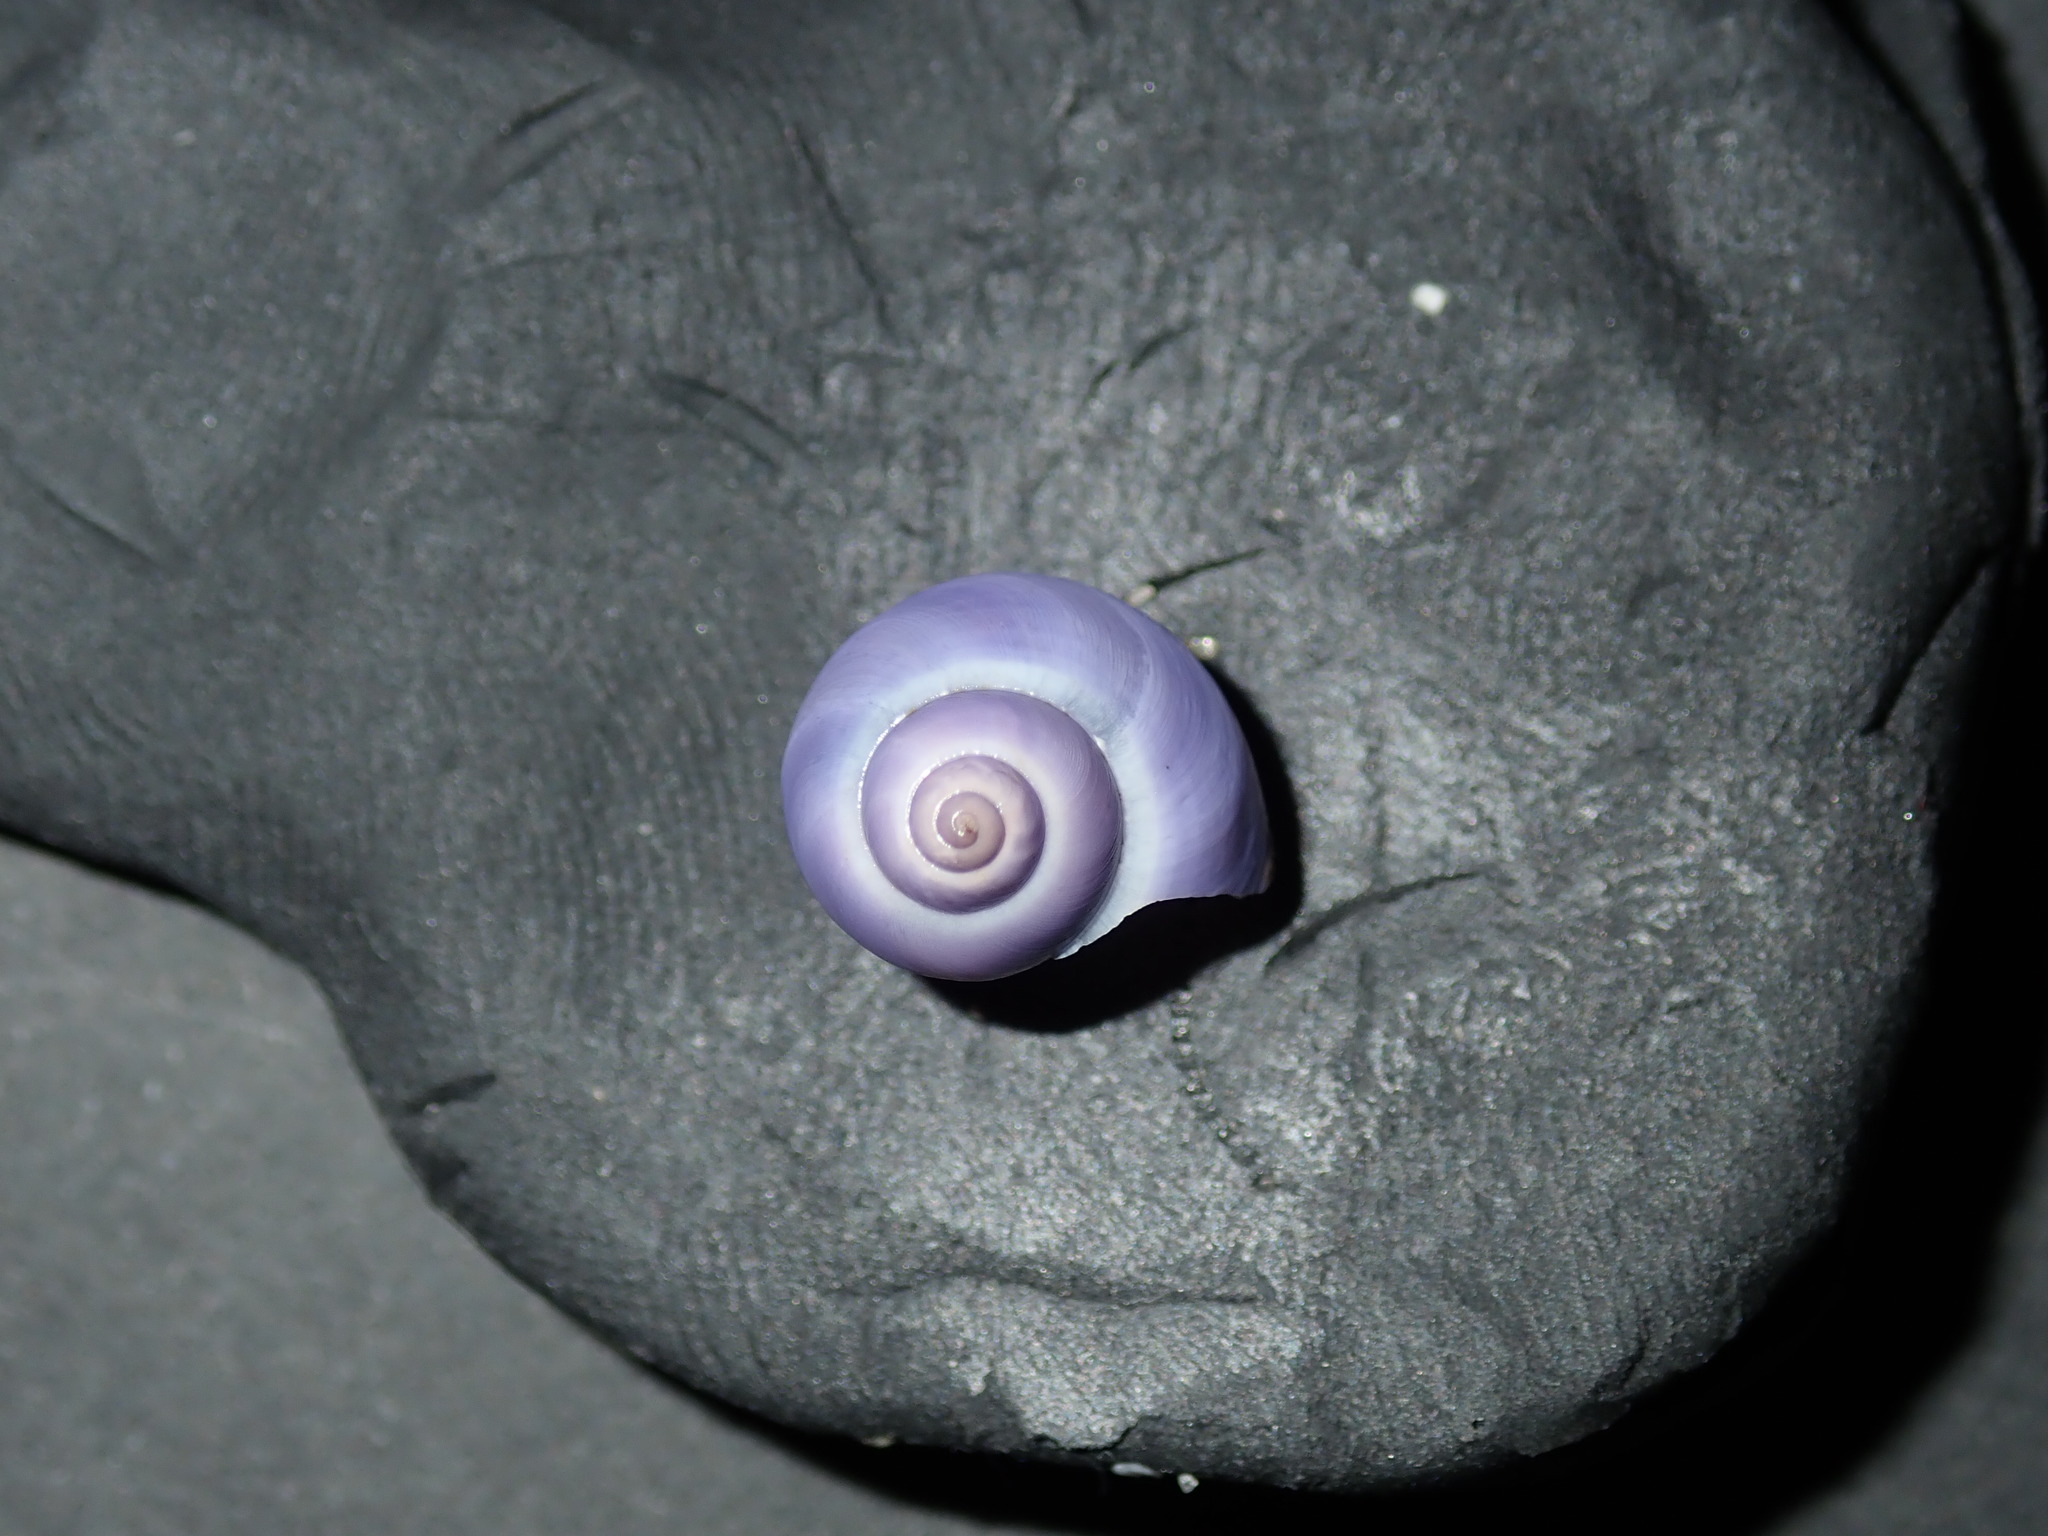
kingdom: Animalia
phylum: Mollusca
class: Gastropoda
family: Epitoniidae
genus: Janthina
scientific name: Janthina umbilicata
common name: Elongate janthina
